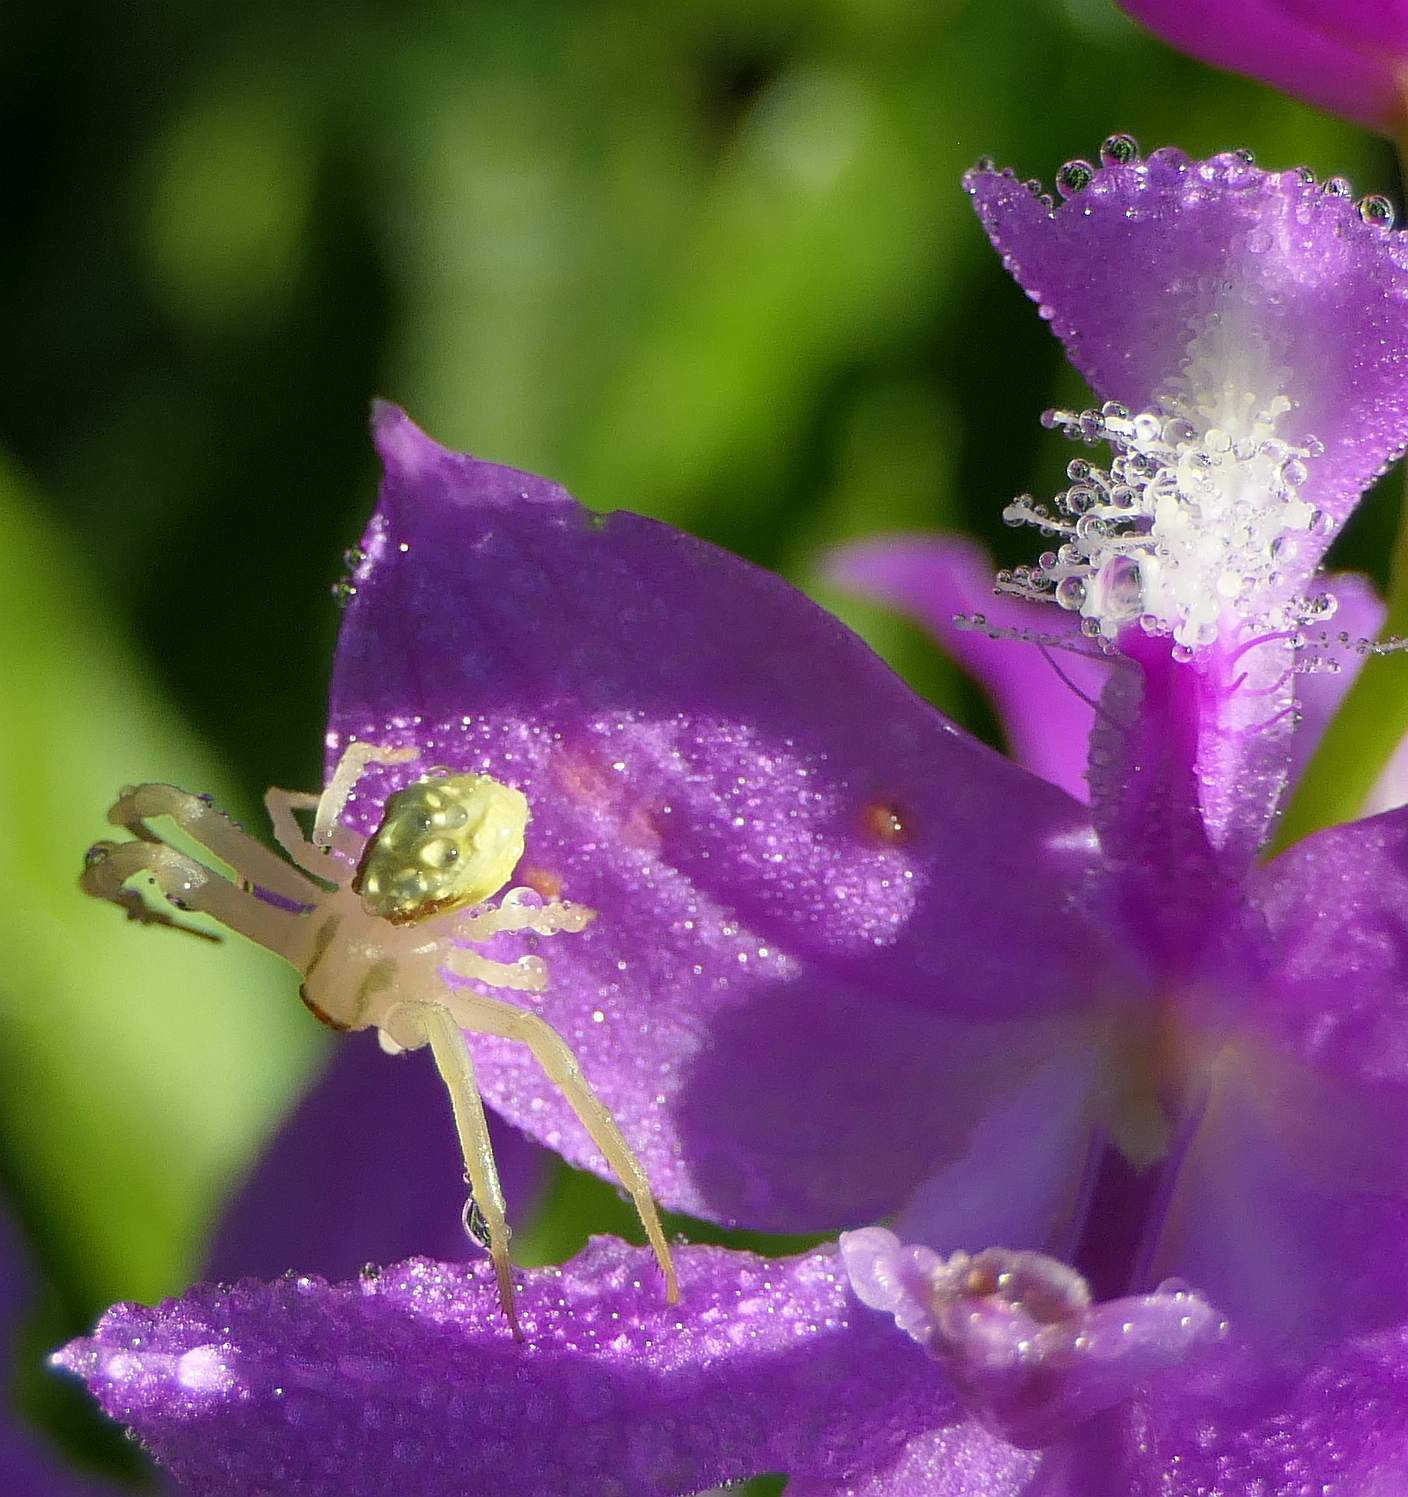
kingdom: Animalia
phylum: Arthropoda
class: Arachnida
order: Araneae
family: Thomisidae
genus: Misumena
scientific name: Misumena vatia
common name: Goldenrod crab spider
